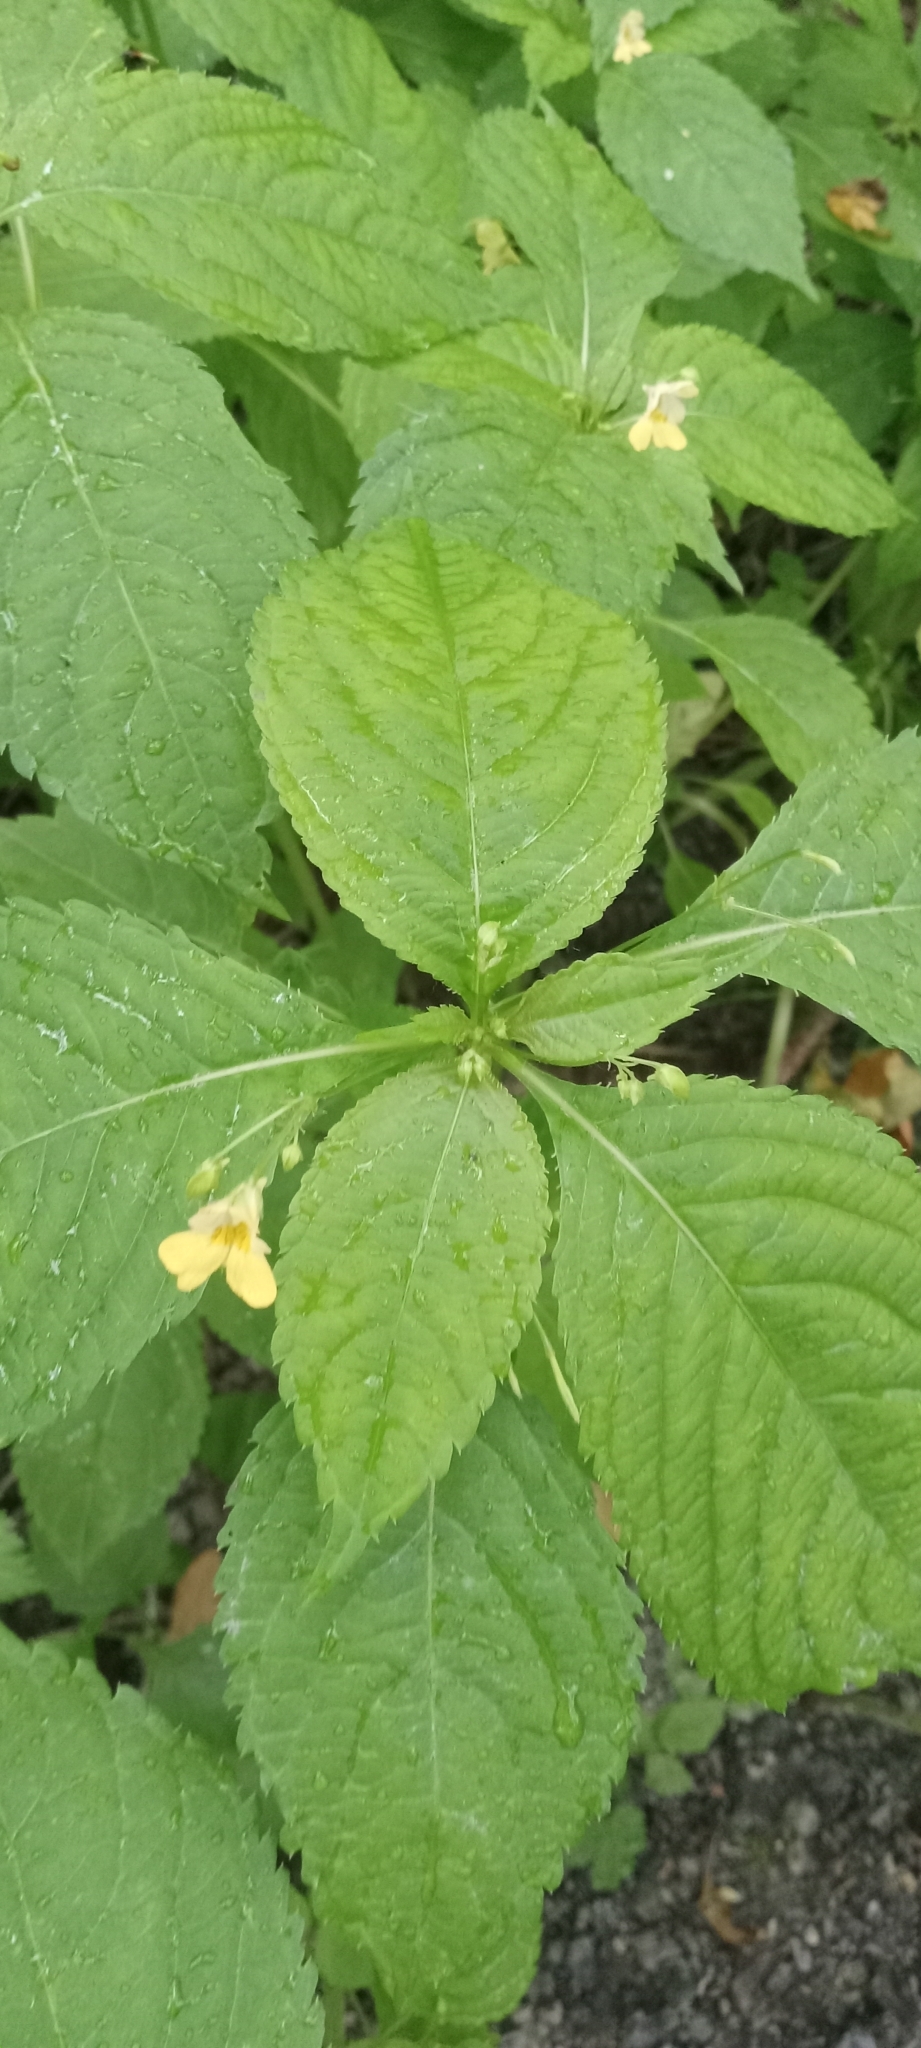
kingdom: Plantae
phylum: Tracheophyta
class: Magnoliopsida
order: Ericales
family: Balsaminaceae
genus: Impatiens
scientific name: Impatiens parviflora
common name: Small balsam
